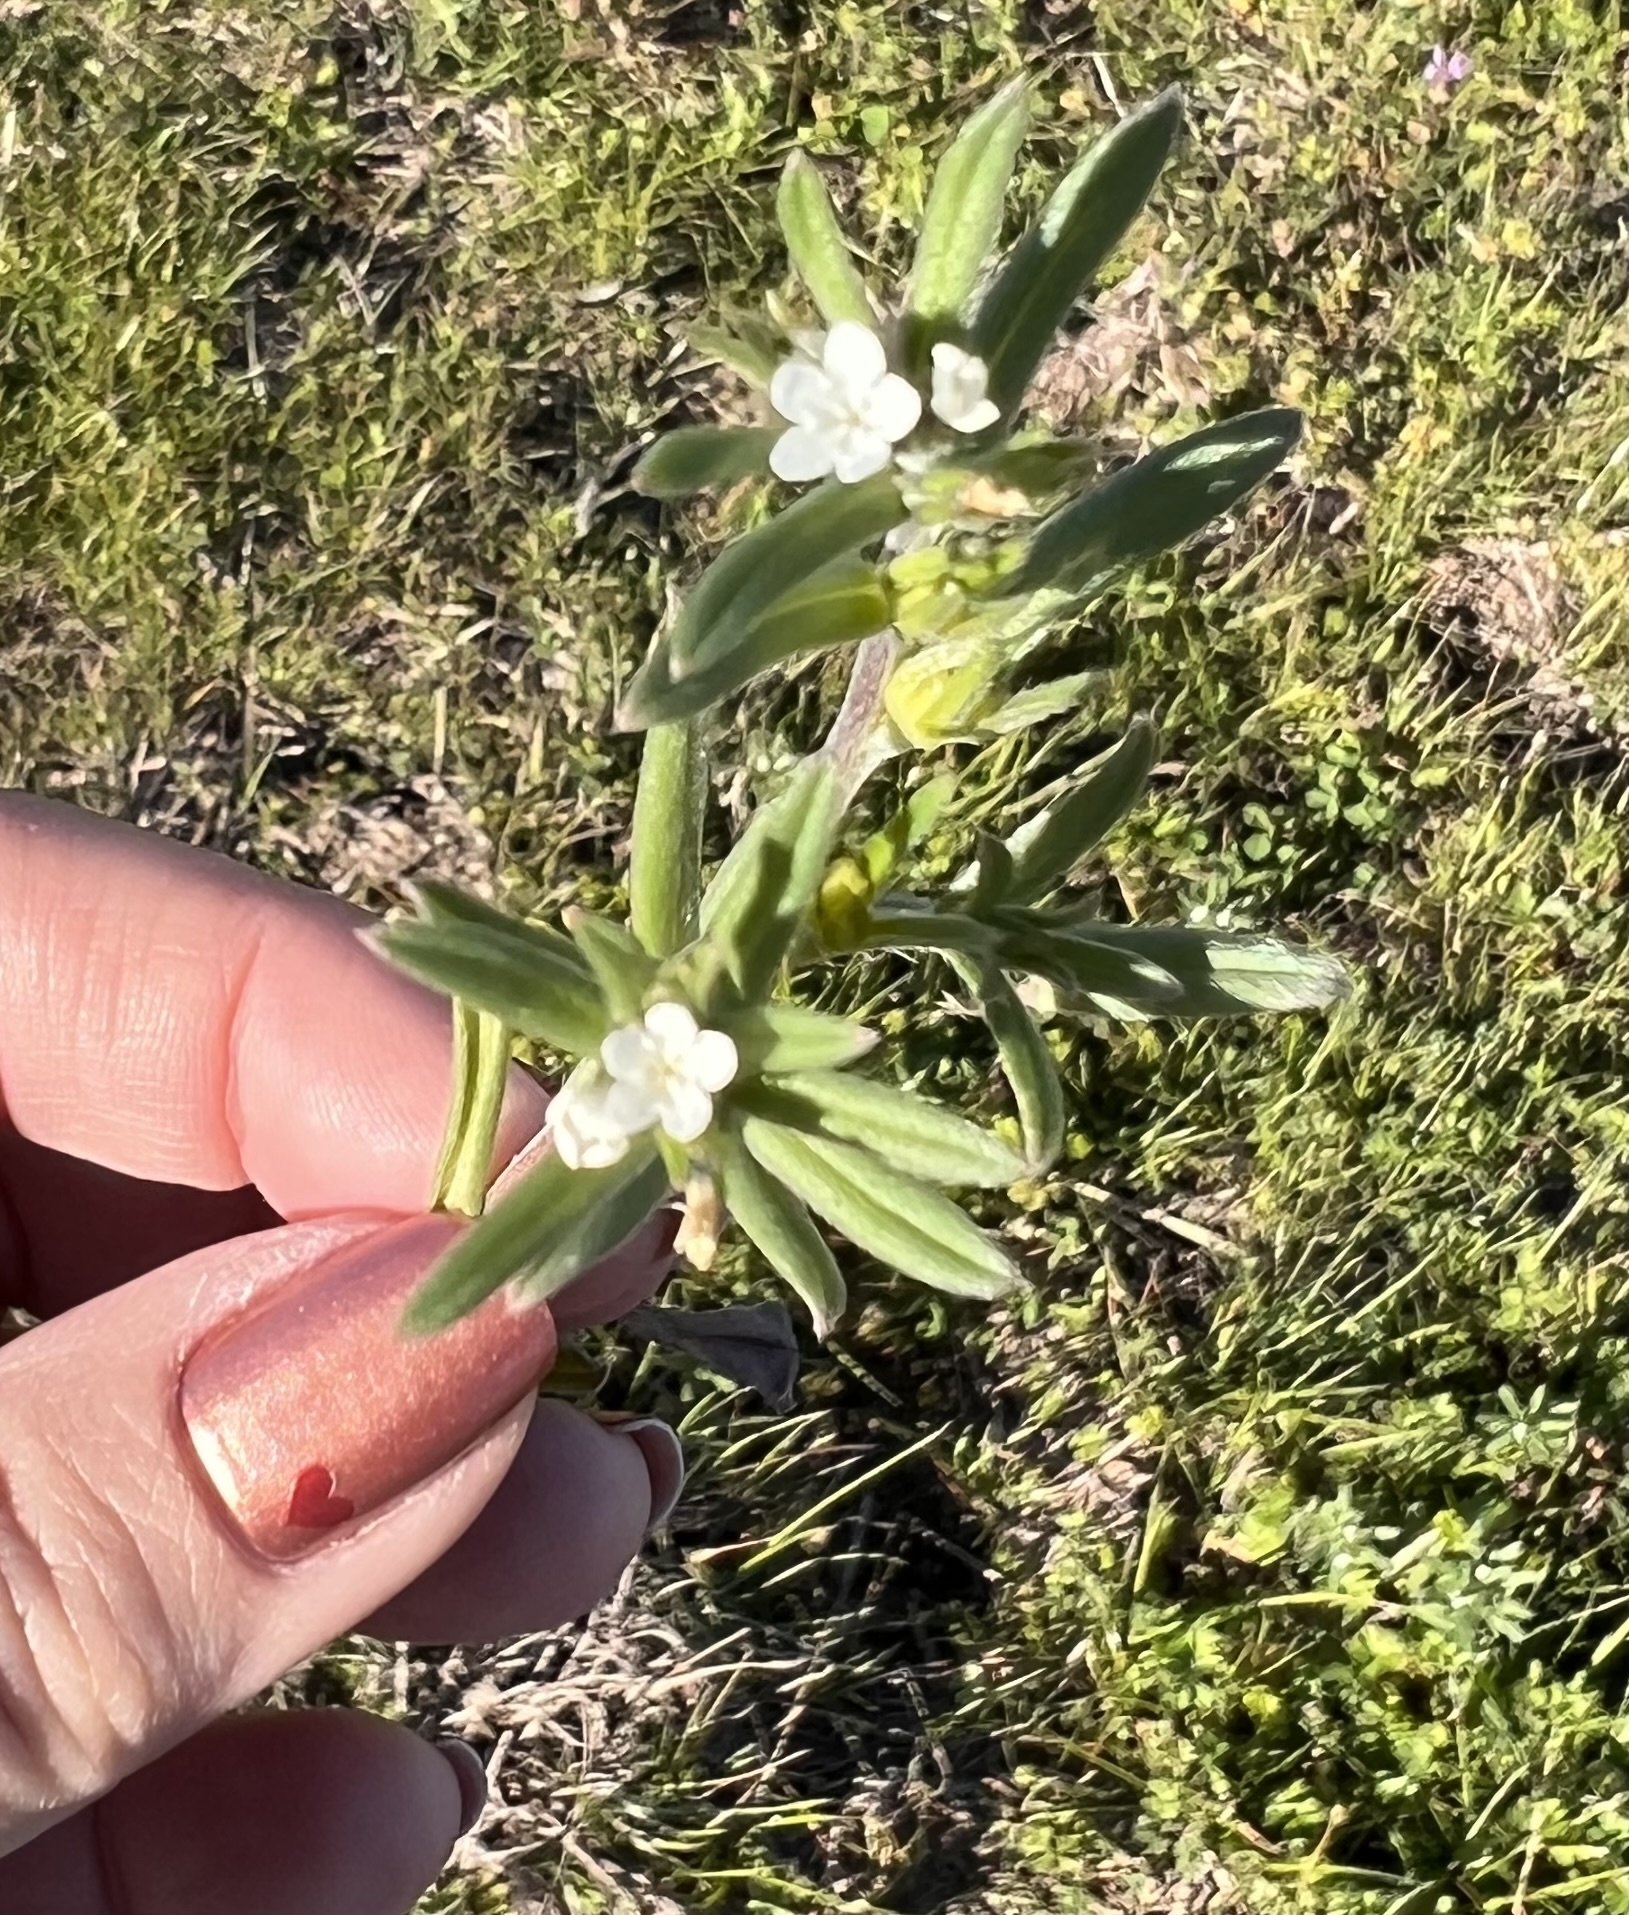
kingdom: Plantae
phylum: Tracheophyta
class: Magnoliopsida
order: Boraginales
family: Boraginaceae
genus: Buglossoides
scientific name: Buglossoides arvensis
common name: Corn gromwell
